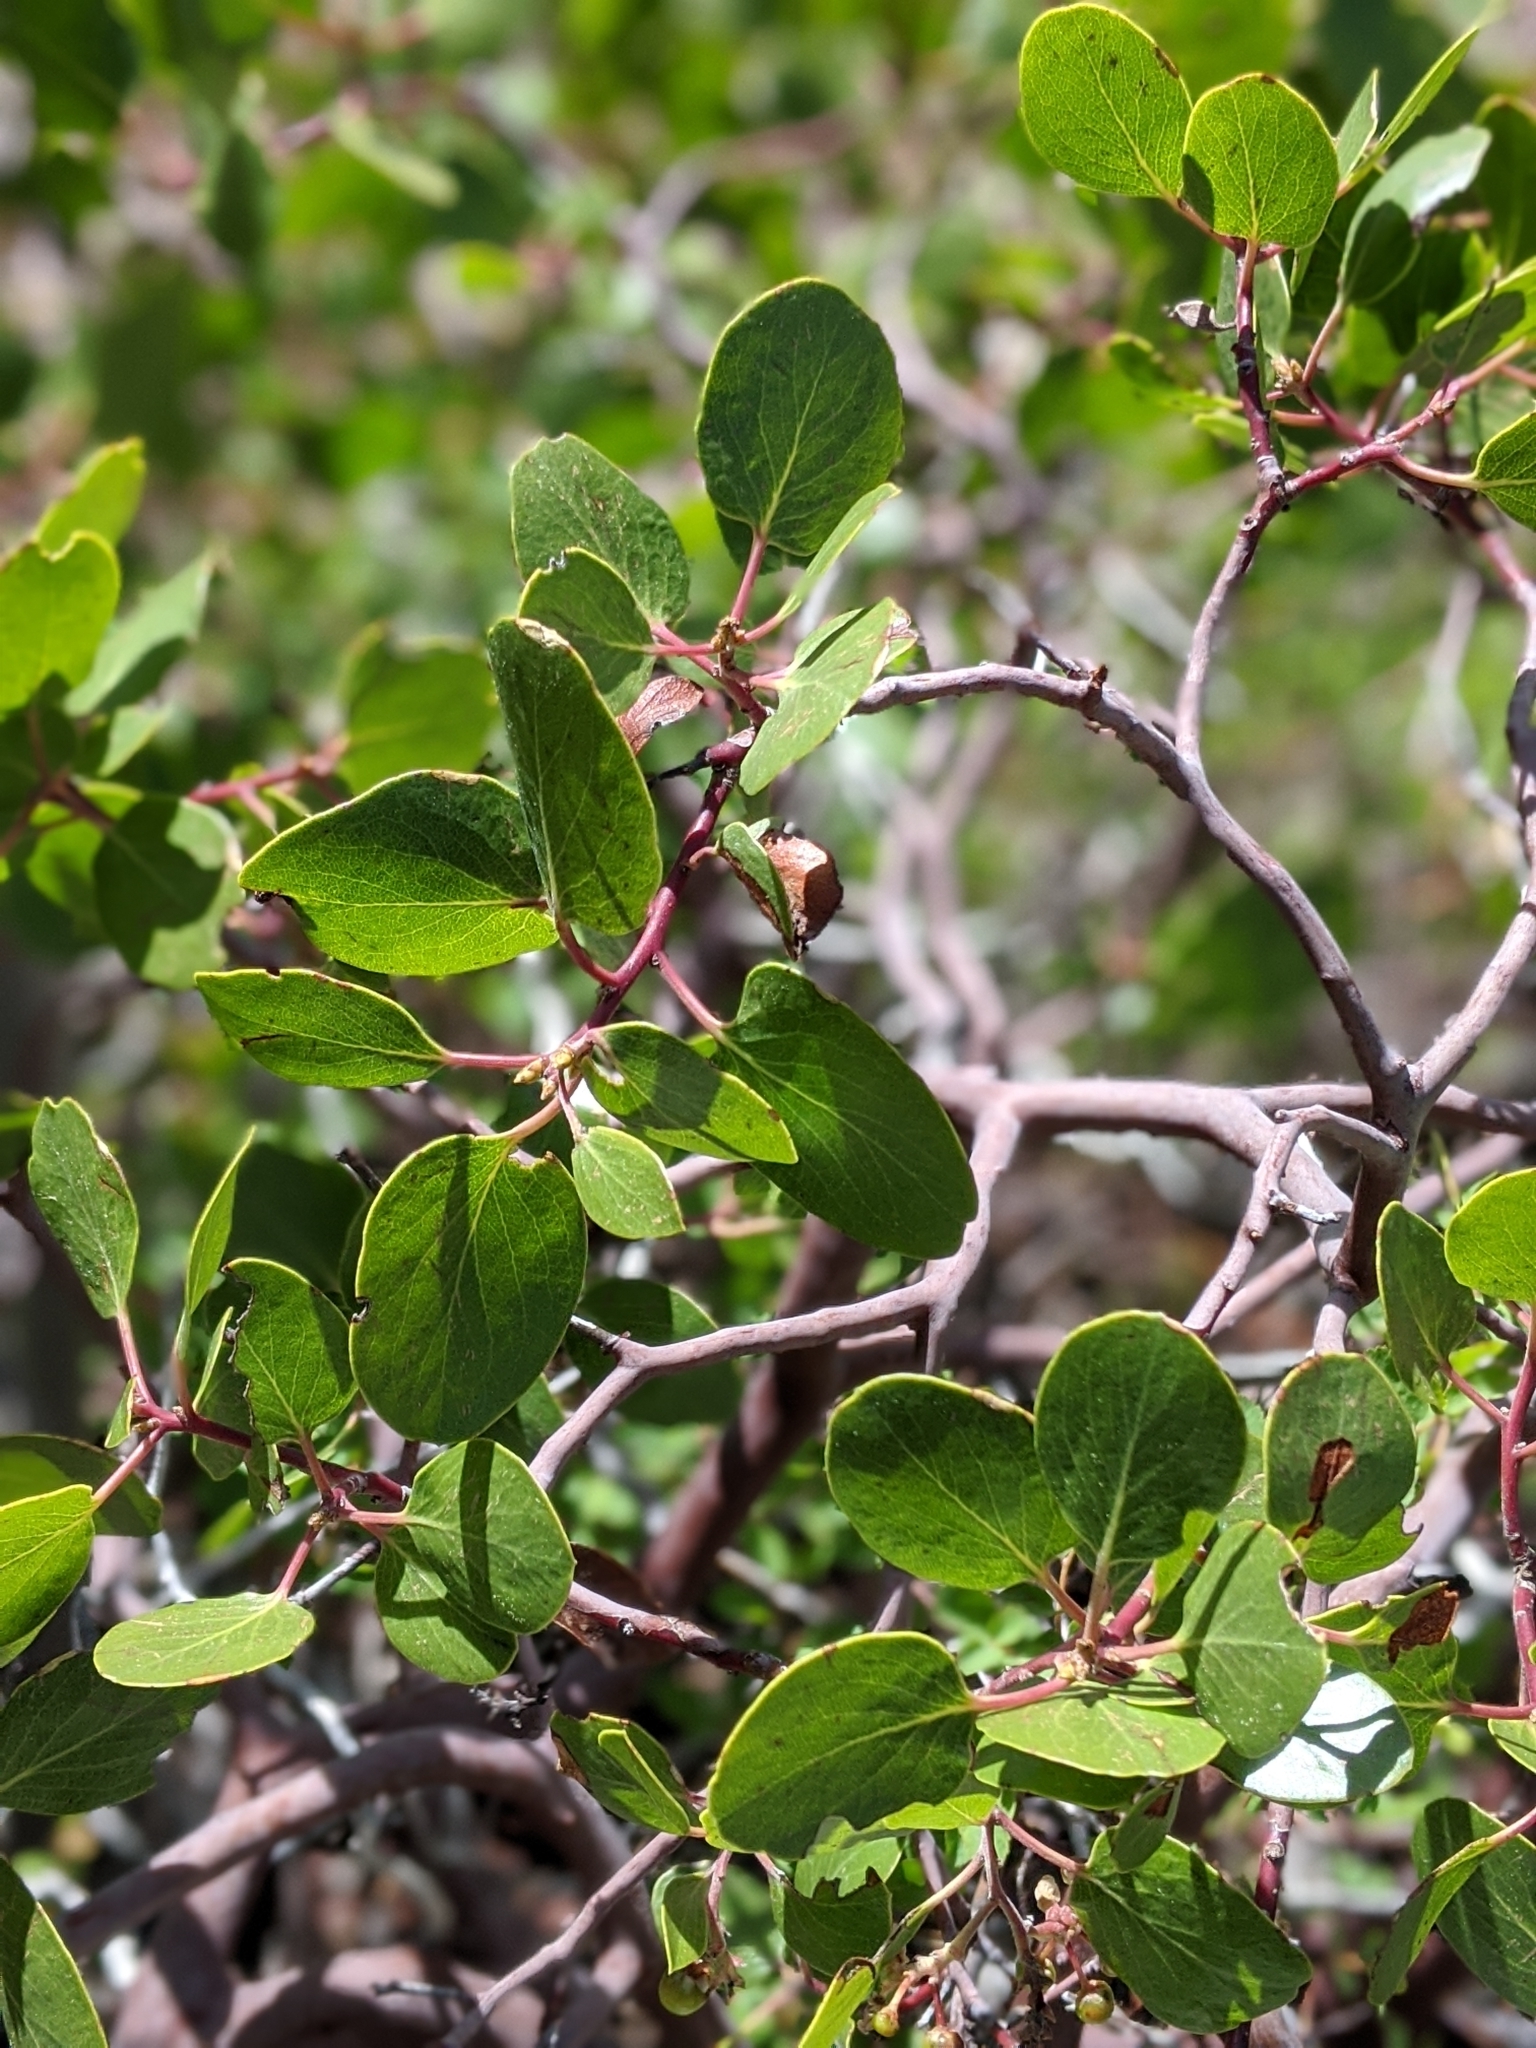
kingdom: Plantae
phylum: Tracheophyta
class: Magnoliopsida
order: Ericales
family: Ericaceae
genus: Arctostaphylos
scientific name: Arctostaphylos patula
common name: Green-leaf manzanita
